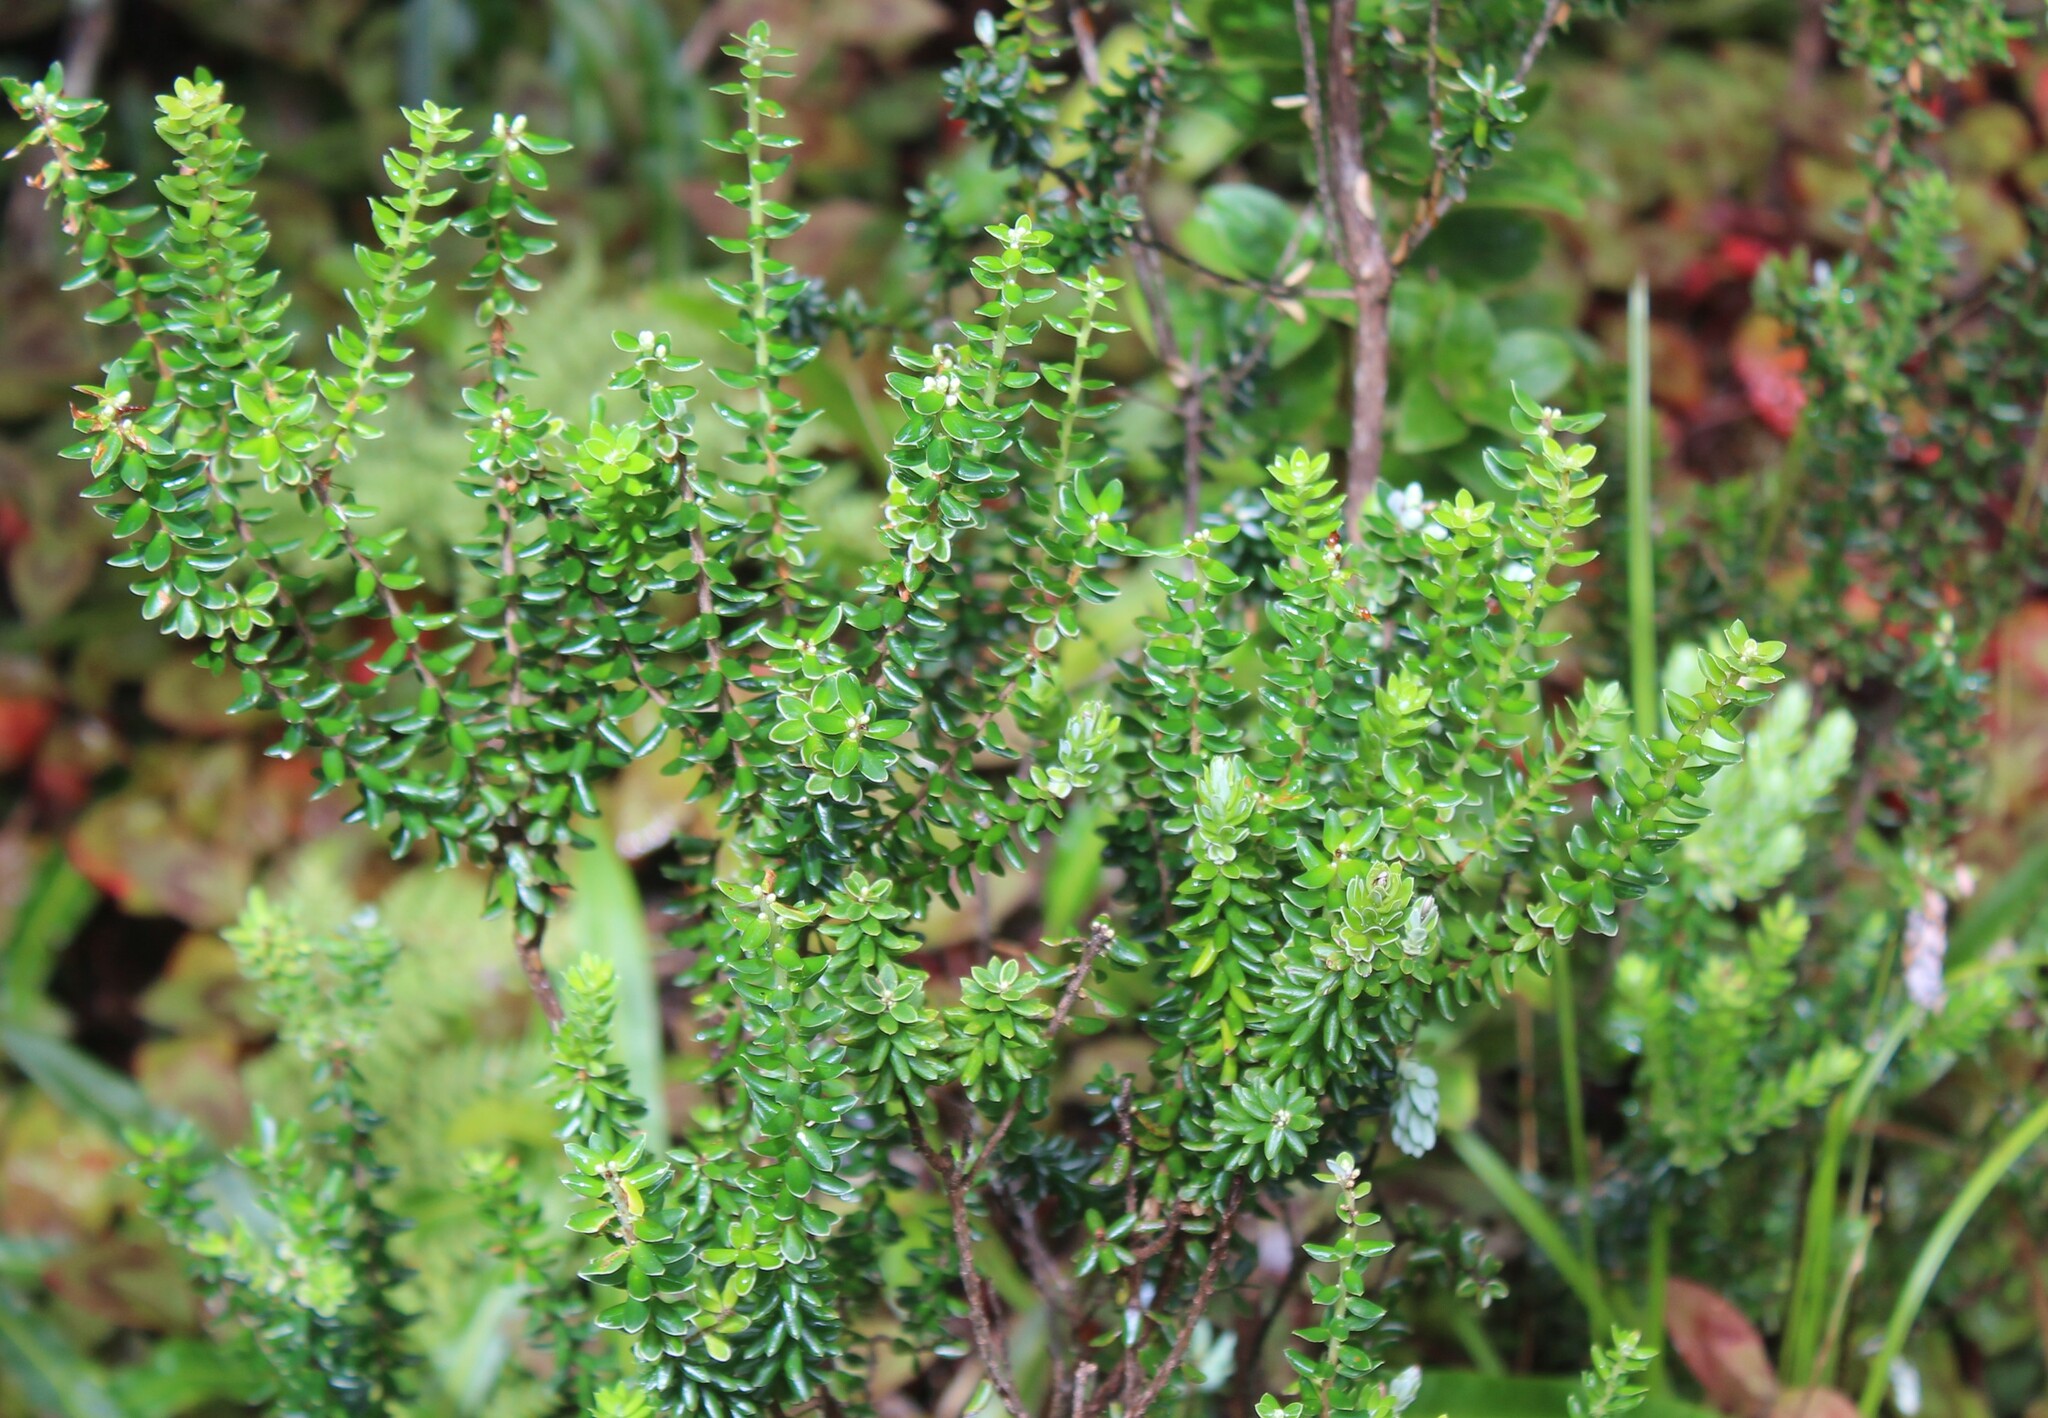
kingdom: Plantae
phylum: Tracheophyta
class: Magnoliopsida
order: Ericales
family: Ericaceae
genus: Leptecophylla
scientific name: Leptecophylla tameiameiae
